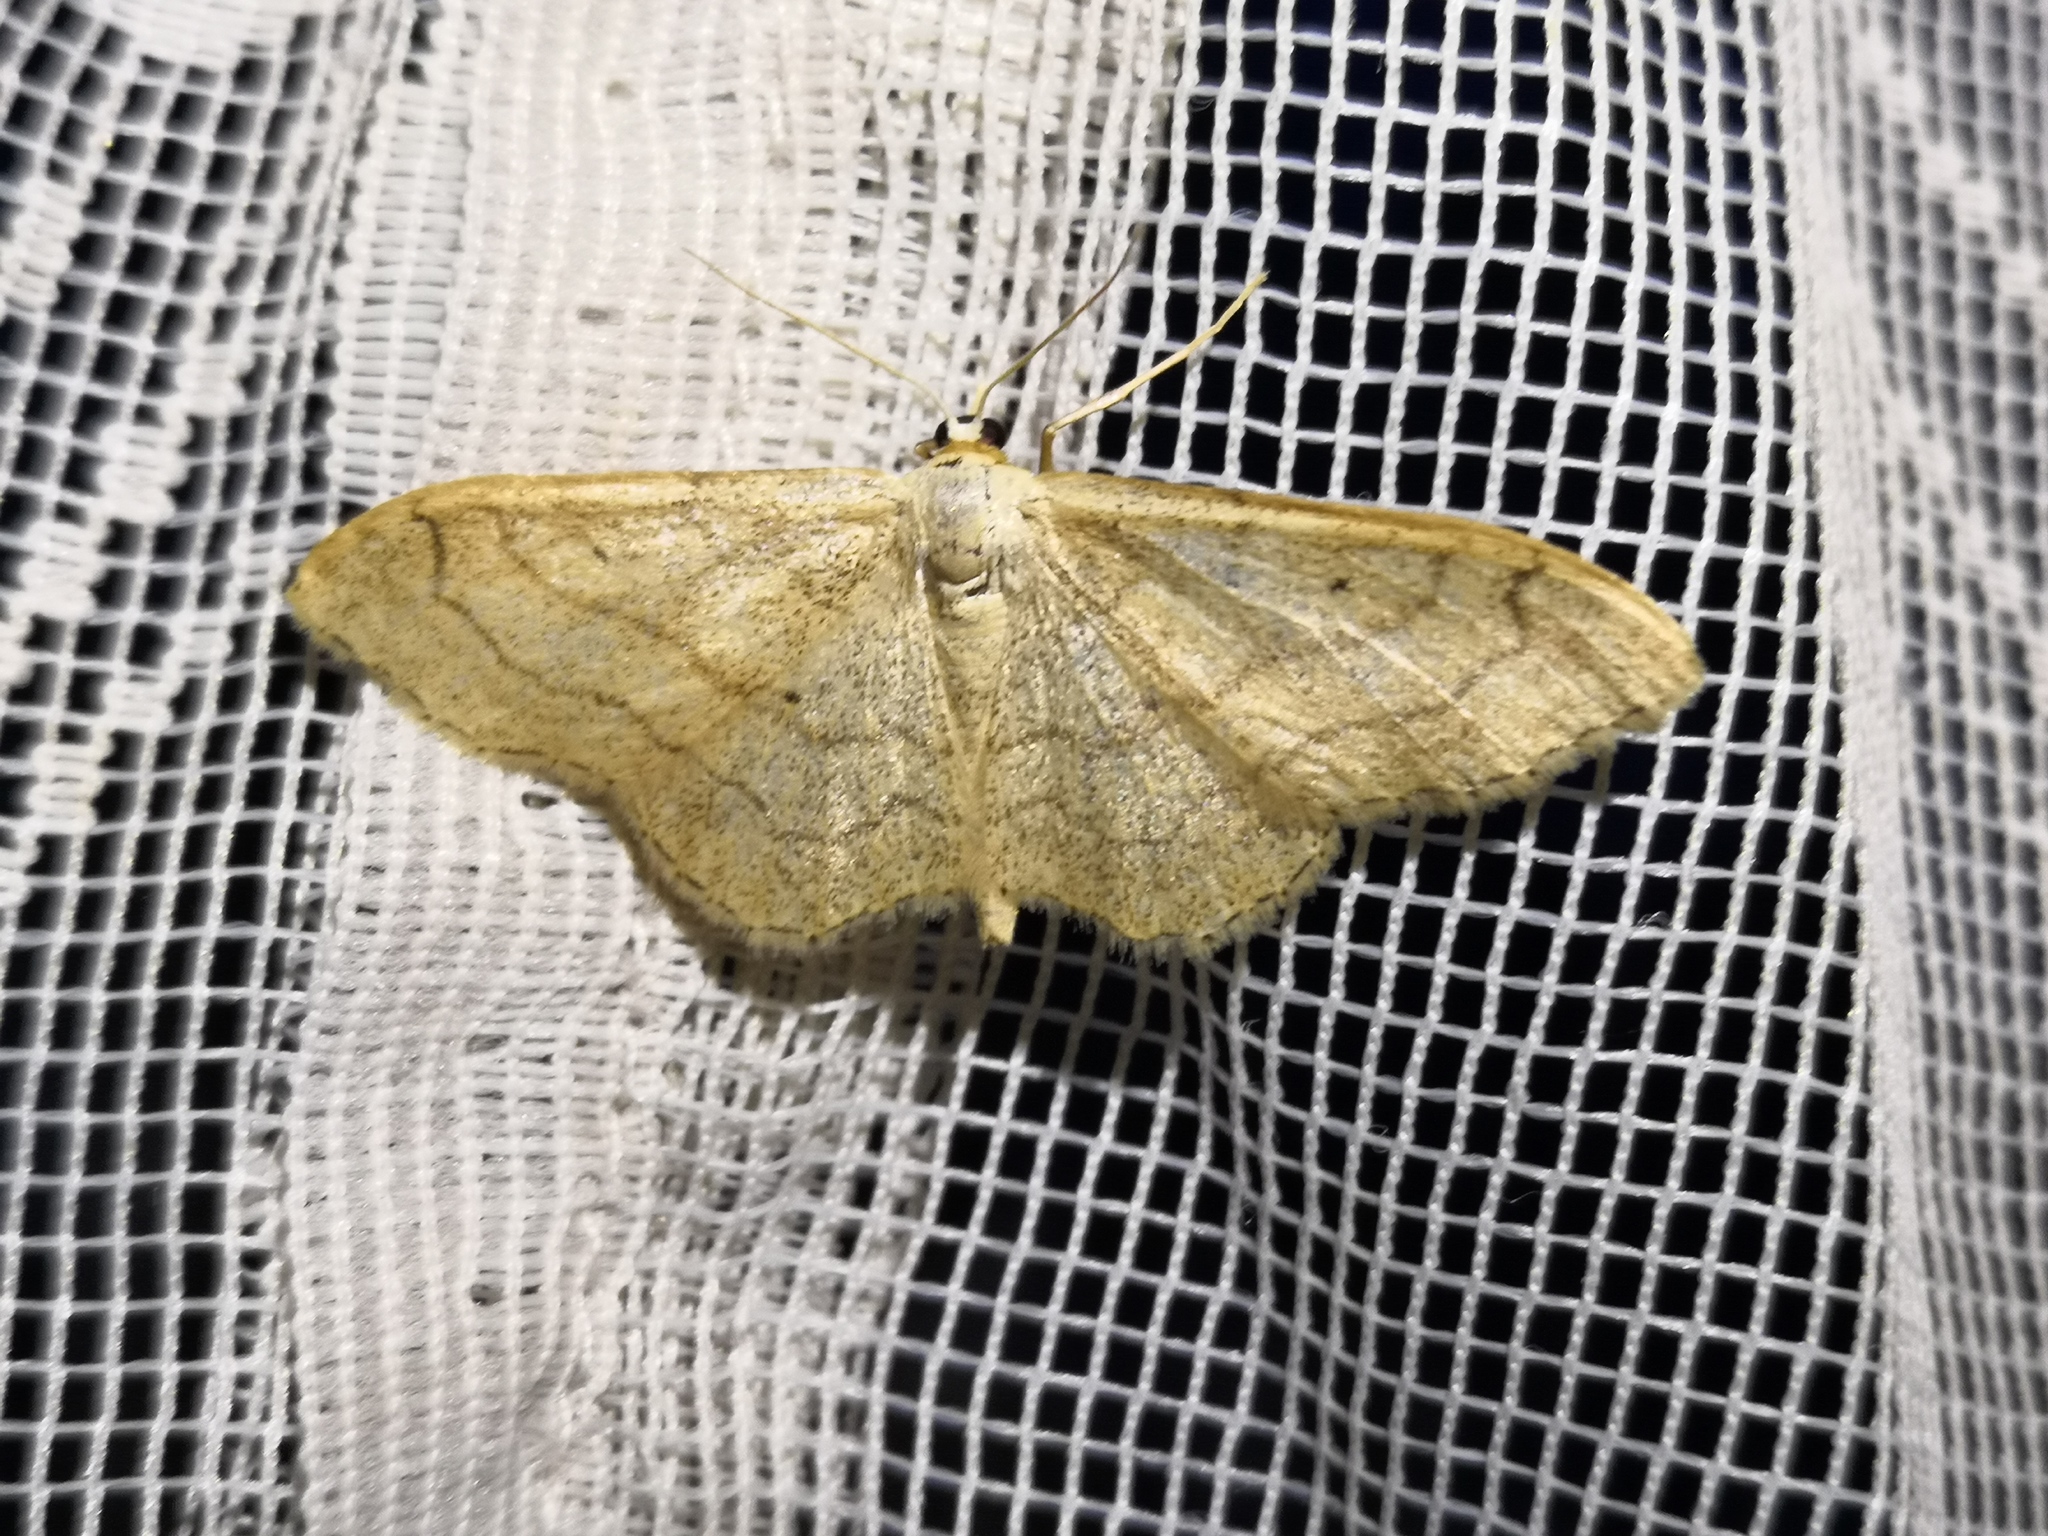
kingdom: Animalia
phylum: Arthropoda
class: Insecta
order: Lepidoptera
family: Geometridae
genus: Idaea
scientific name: Idaea aversata
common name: Riband wave
